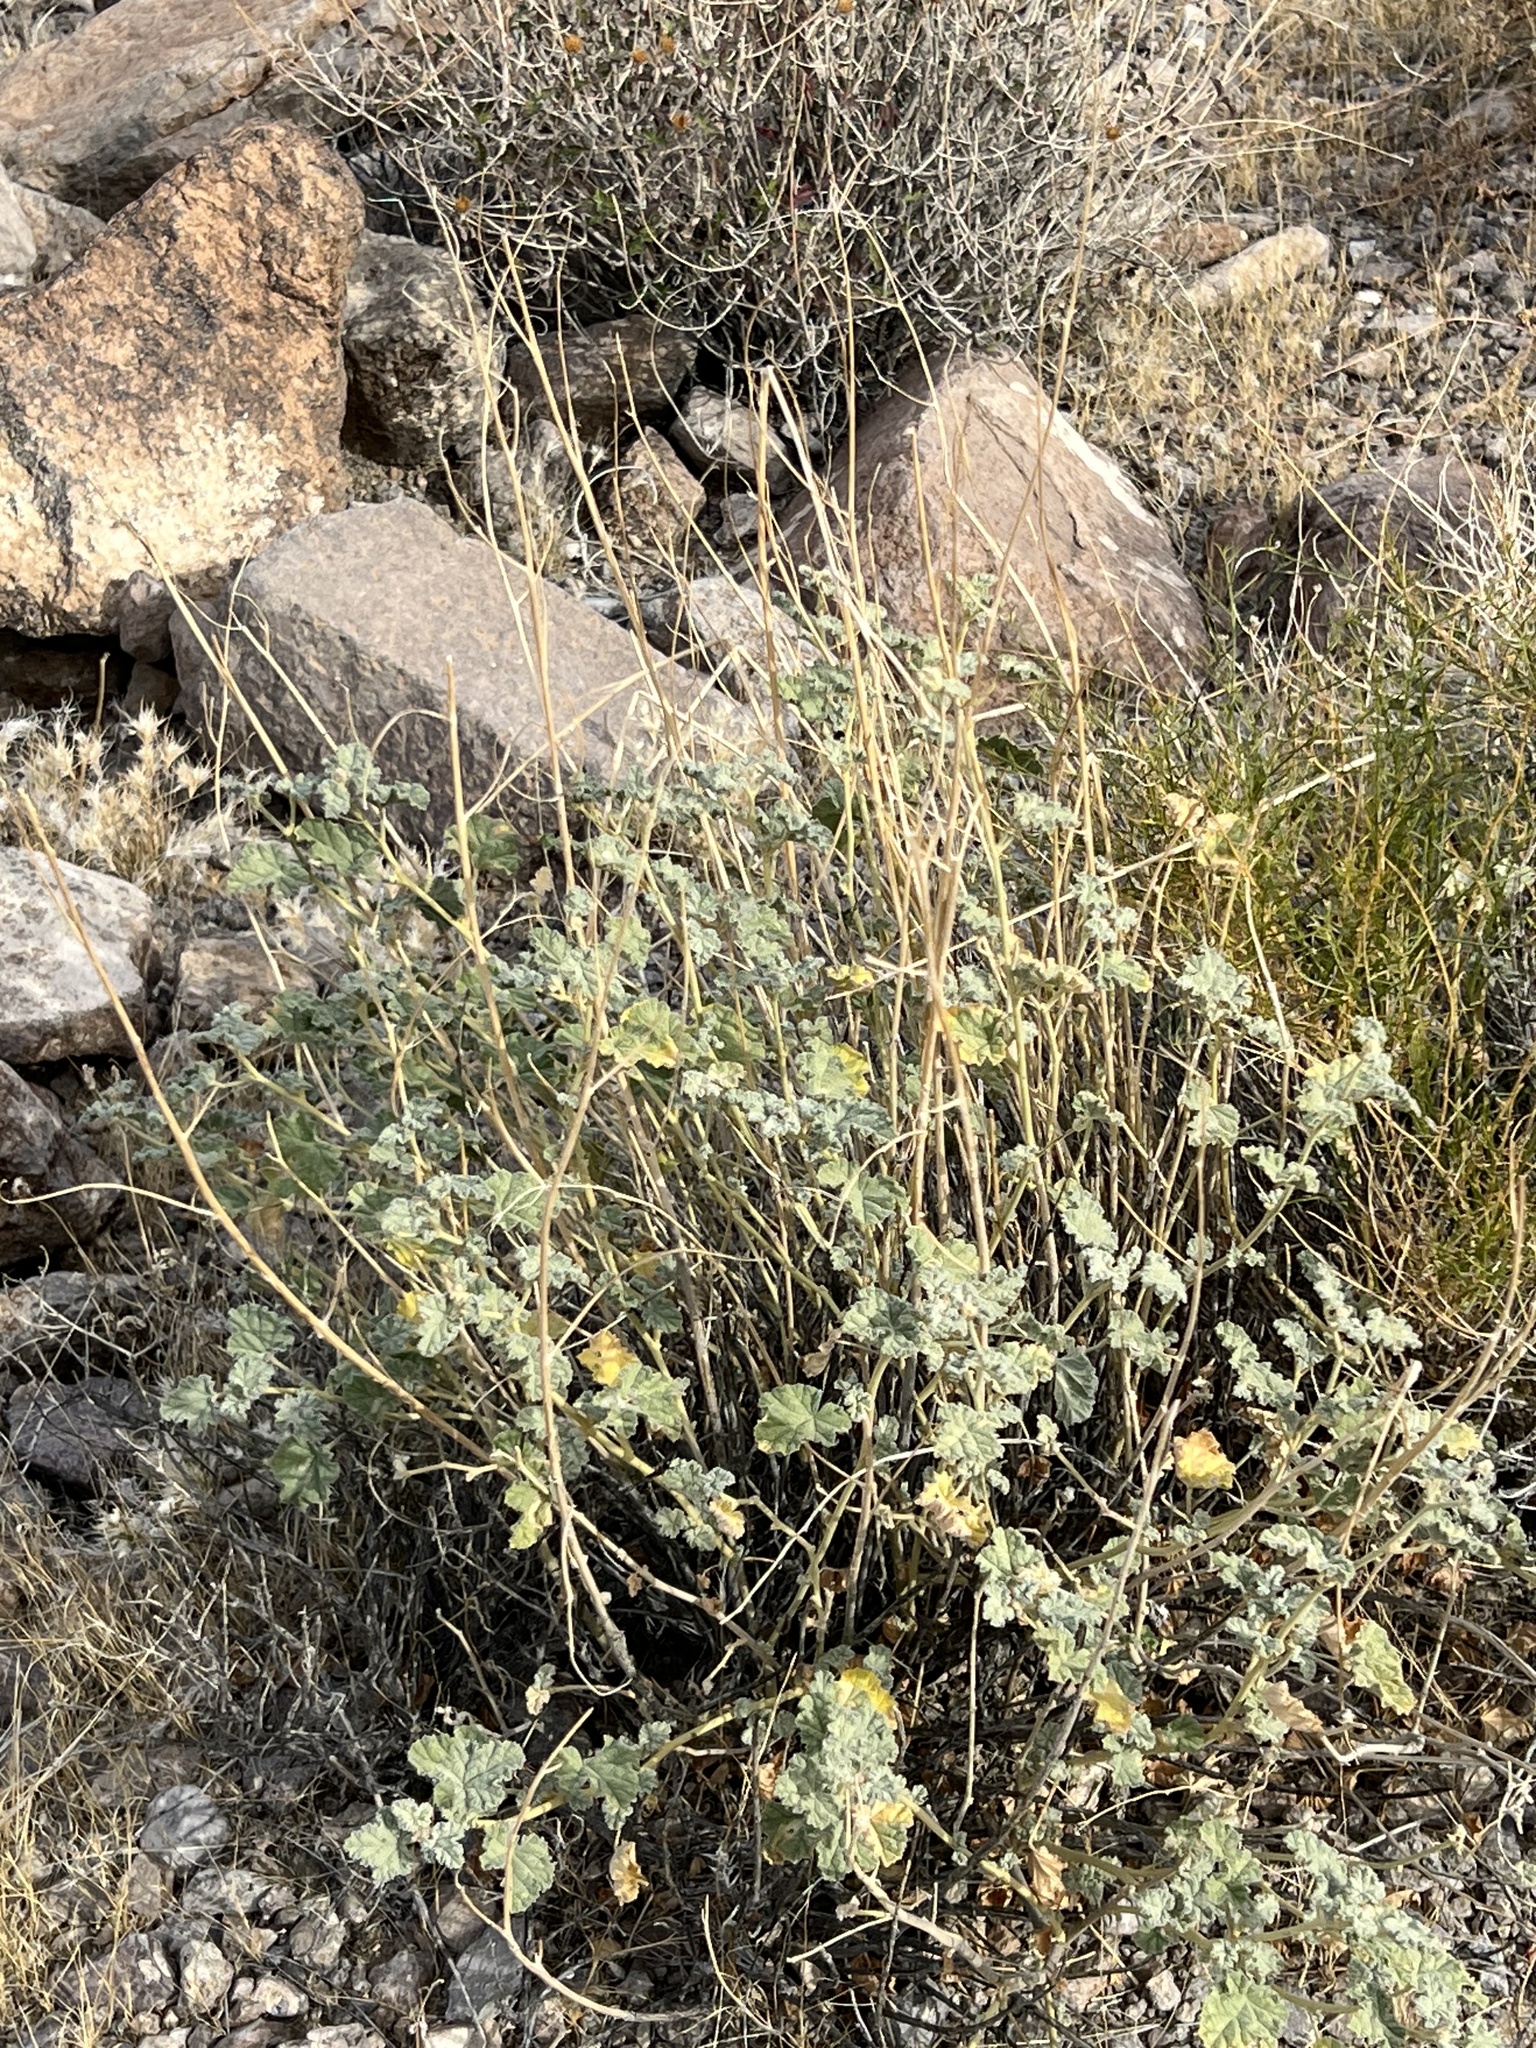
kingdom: Plantae
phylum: Tracheophyta
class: Magnoliopsida
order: Malvales
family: Malvaceae
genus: Sphaeralcea
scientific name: Sphaeralcea ambigua
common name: Apricot globe-mallow
